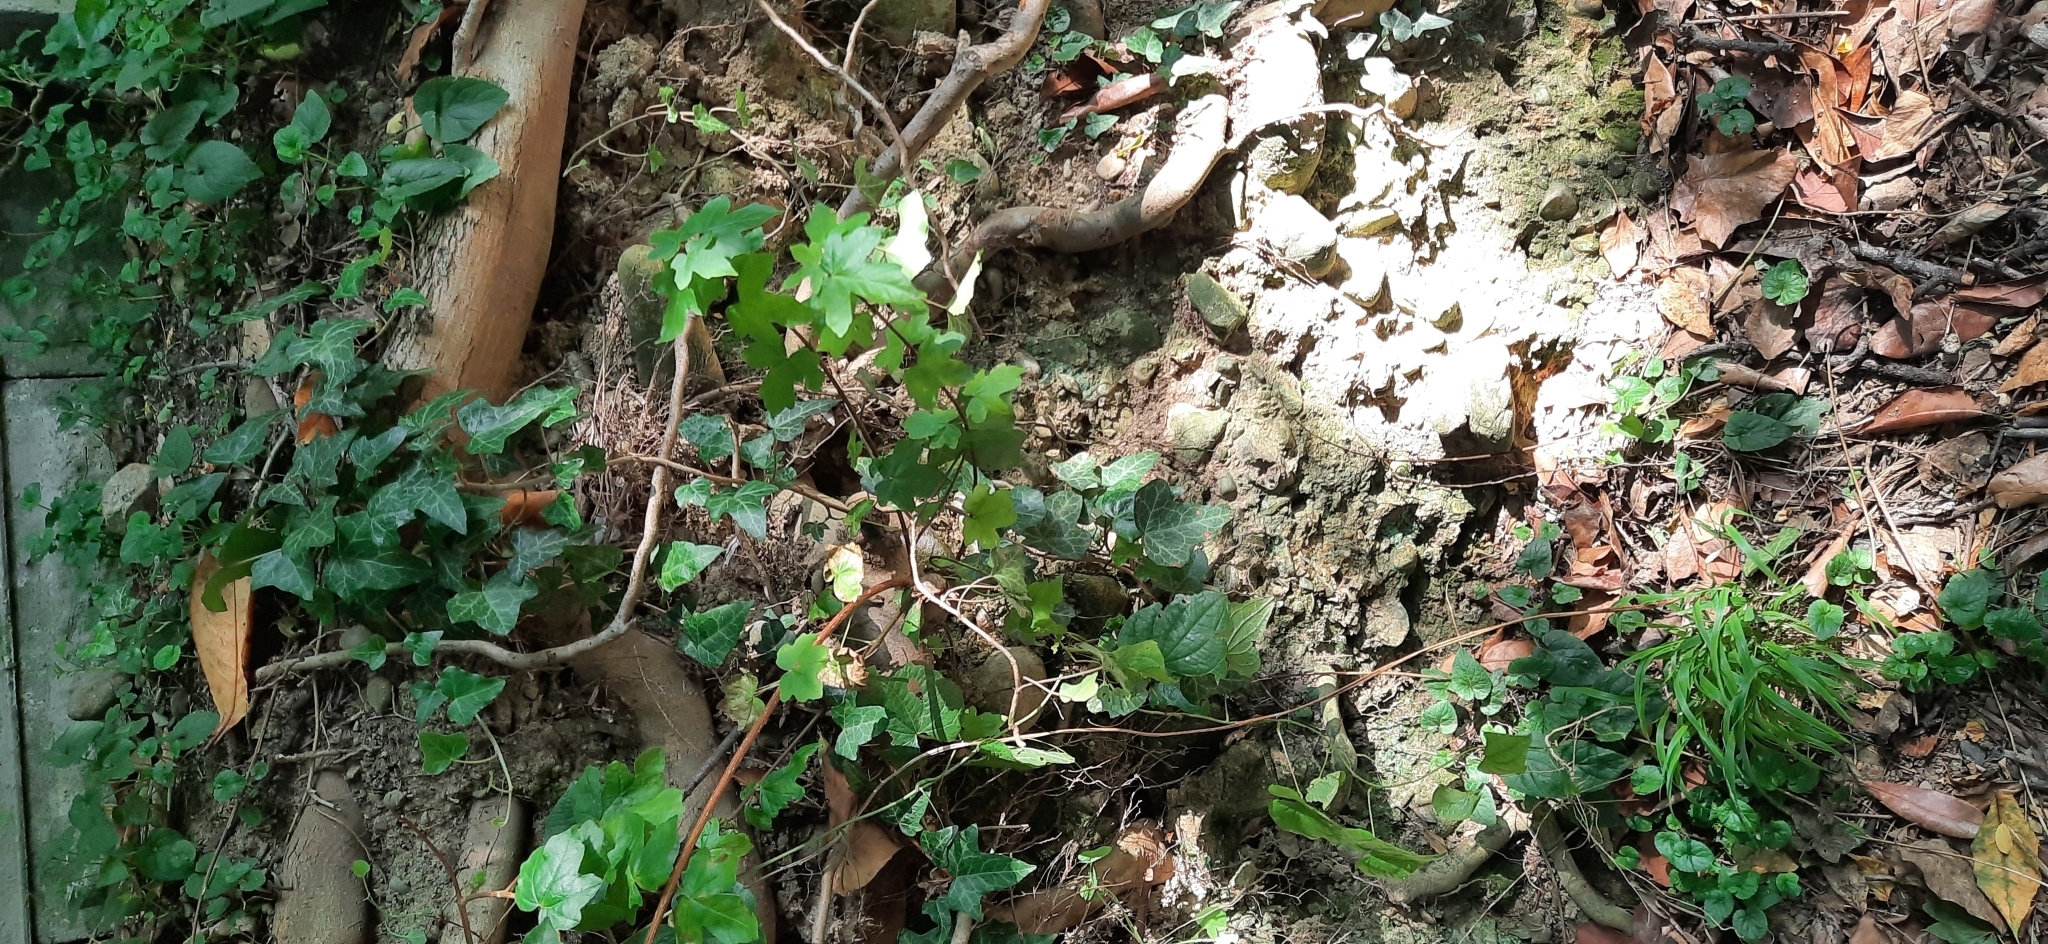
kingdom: Plantae
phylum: Tracheophyta
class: Magnoliopsida
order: Sapindales
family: Sapindaceae
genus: Acer
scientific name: Acer campestre
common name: Field maple
